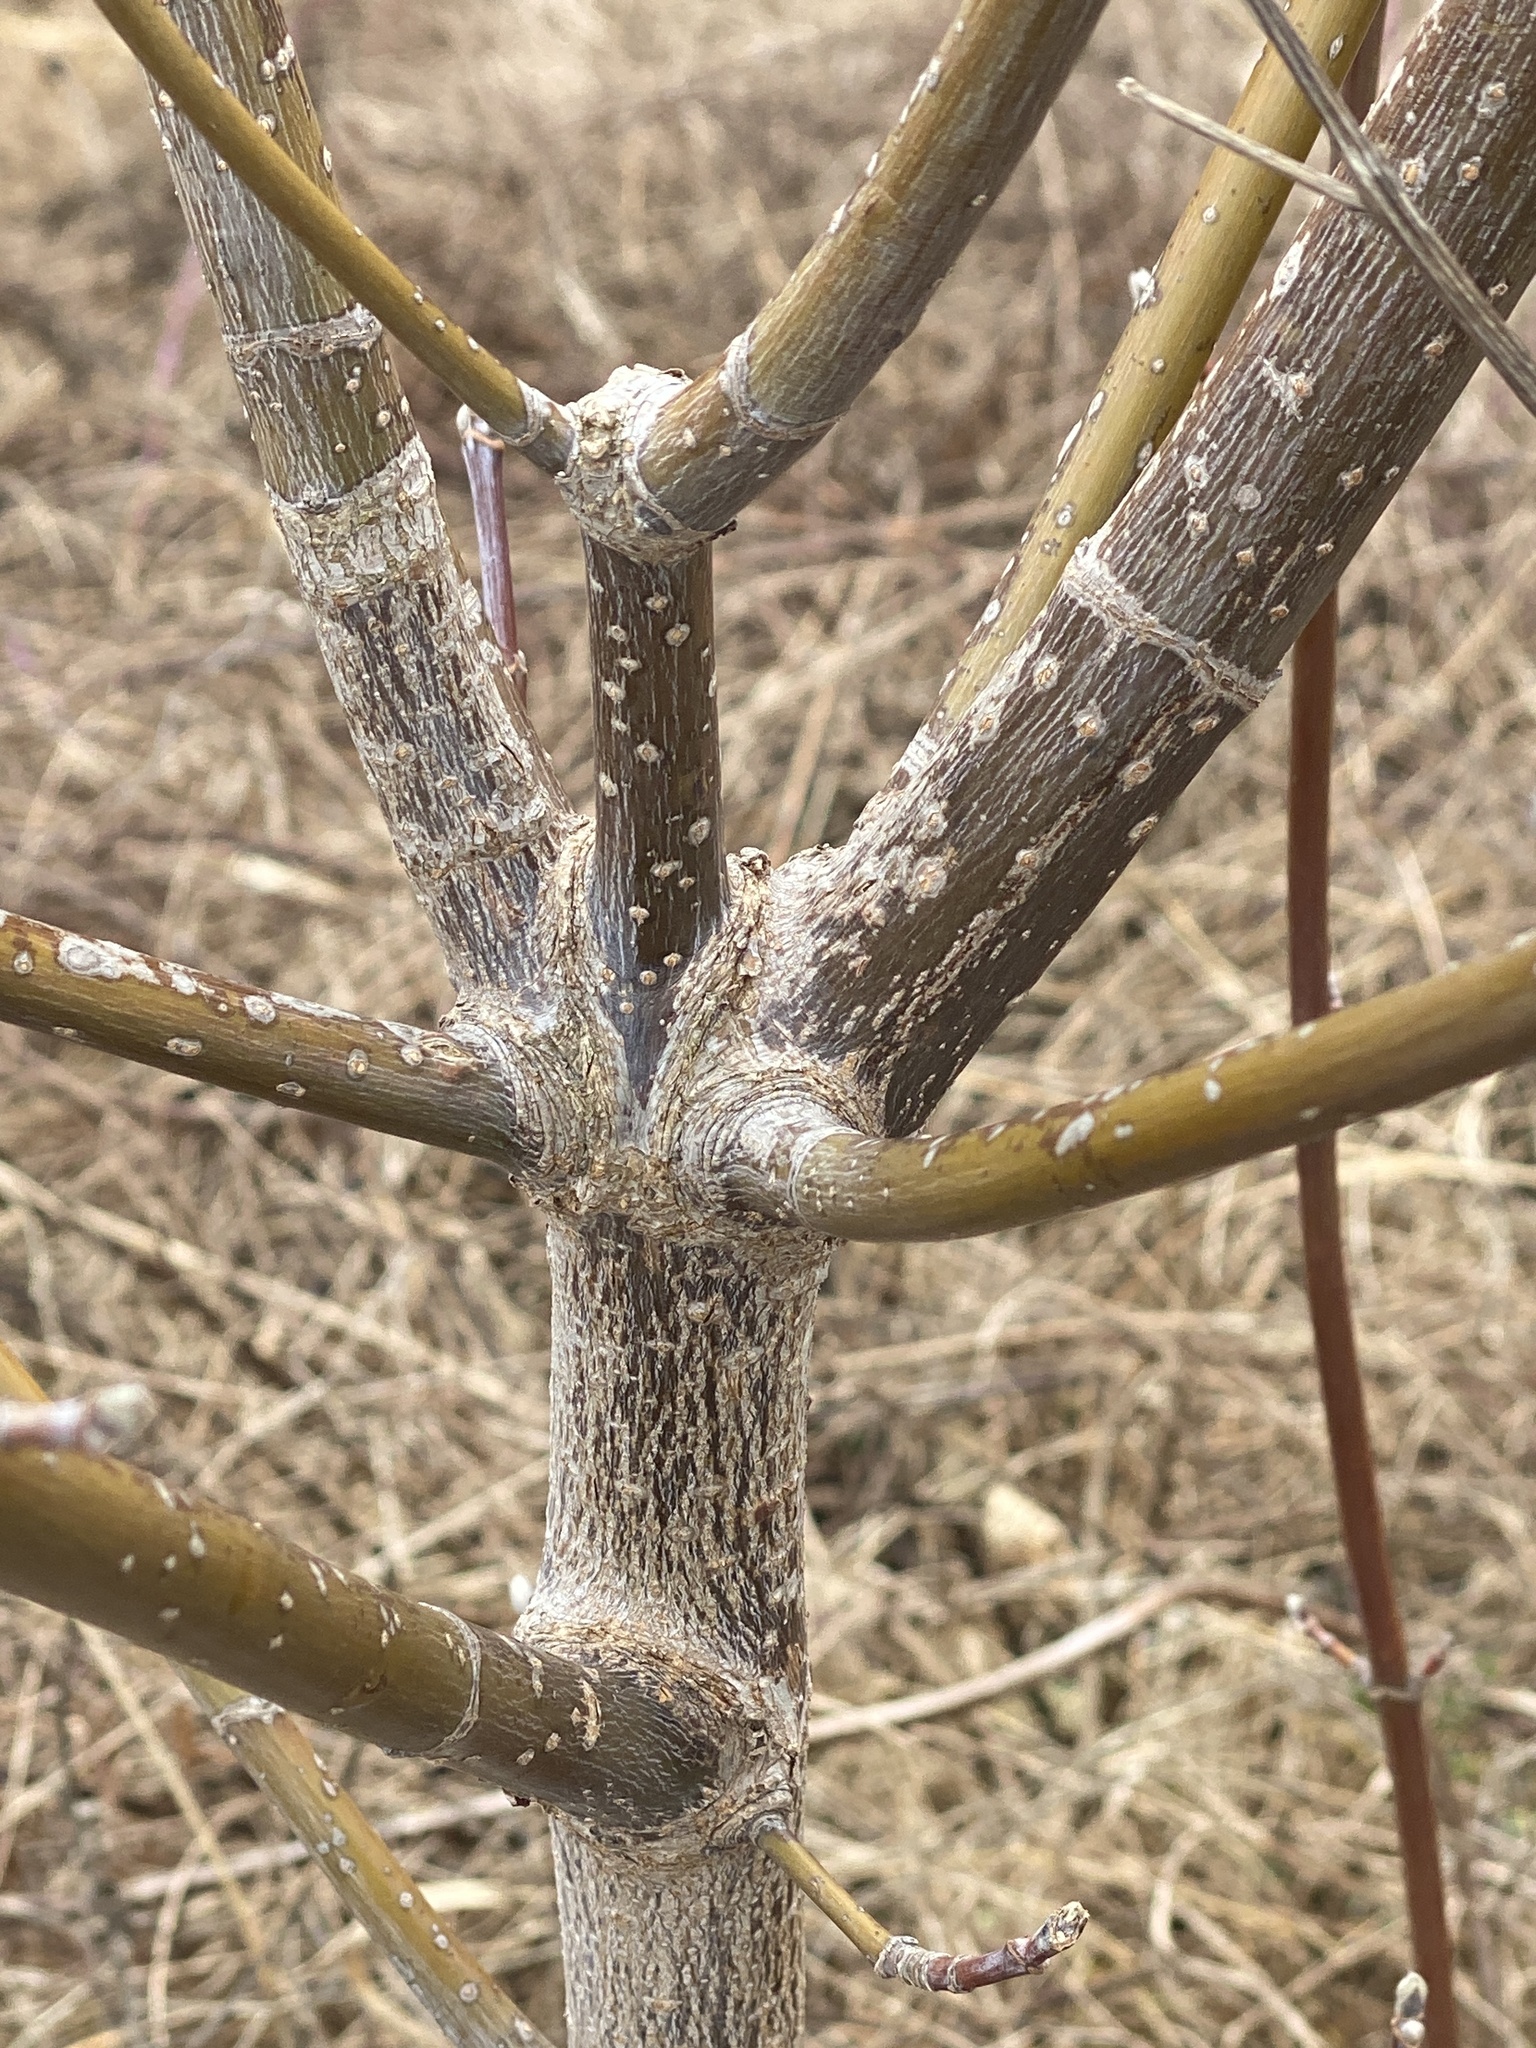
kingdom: Plantae
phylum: Tracheophyta
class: Magnoliopsida
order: Sapindales
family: Sapindaceae
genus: Acer
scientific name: Acer negundo
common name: Ashleaf maple
